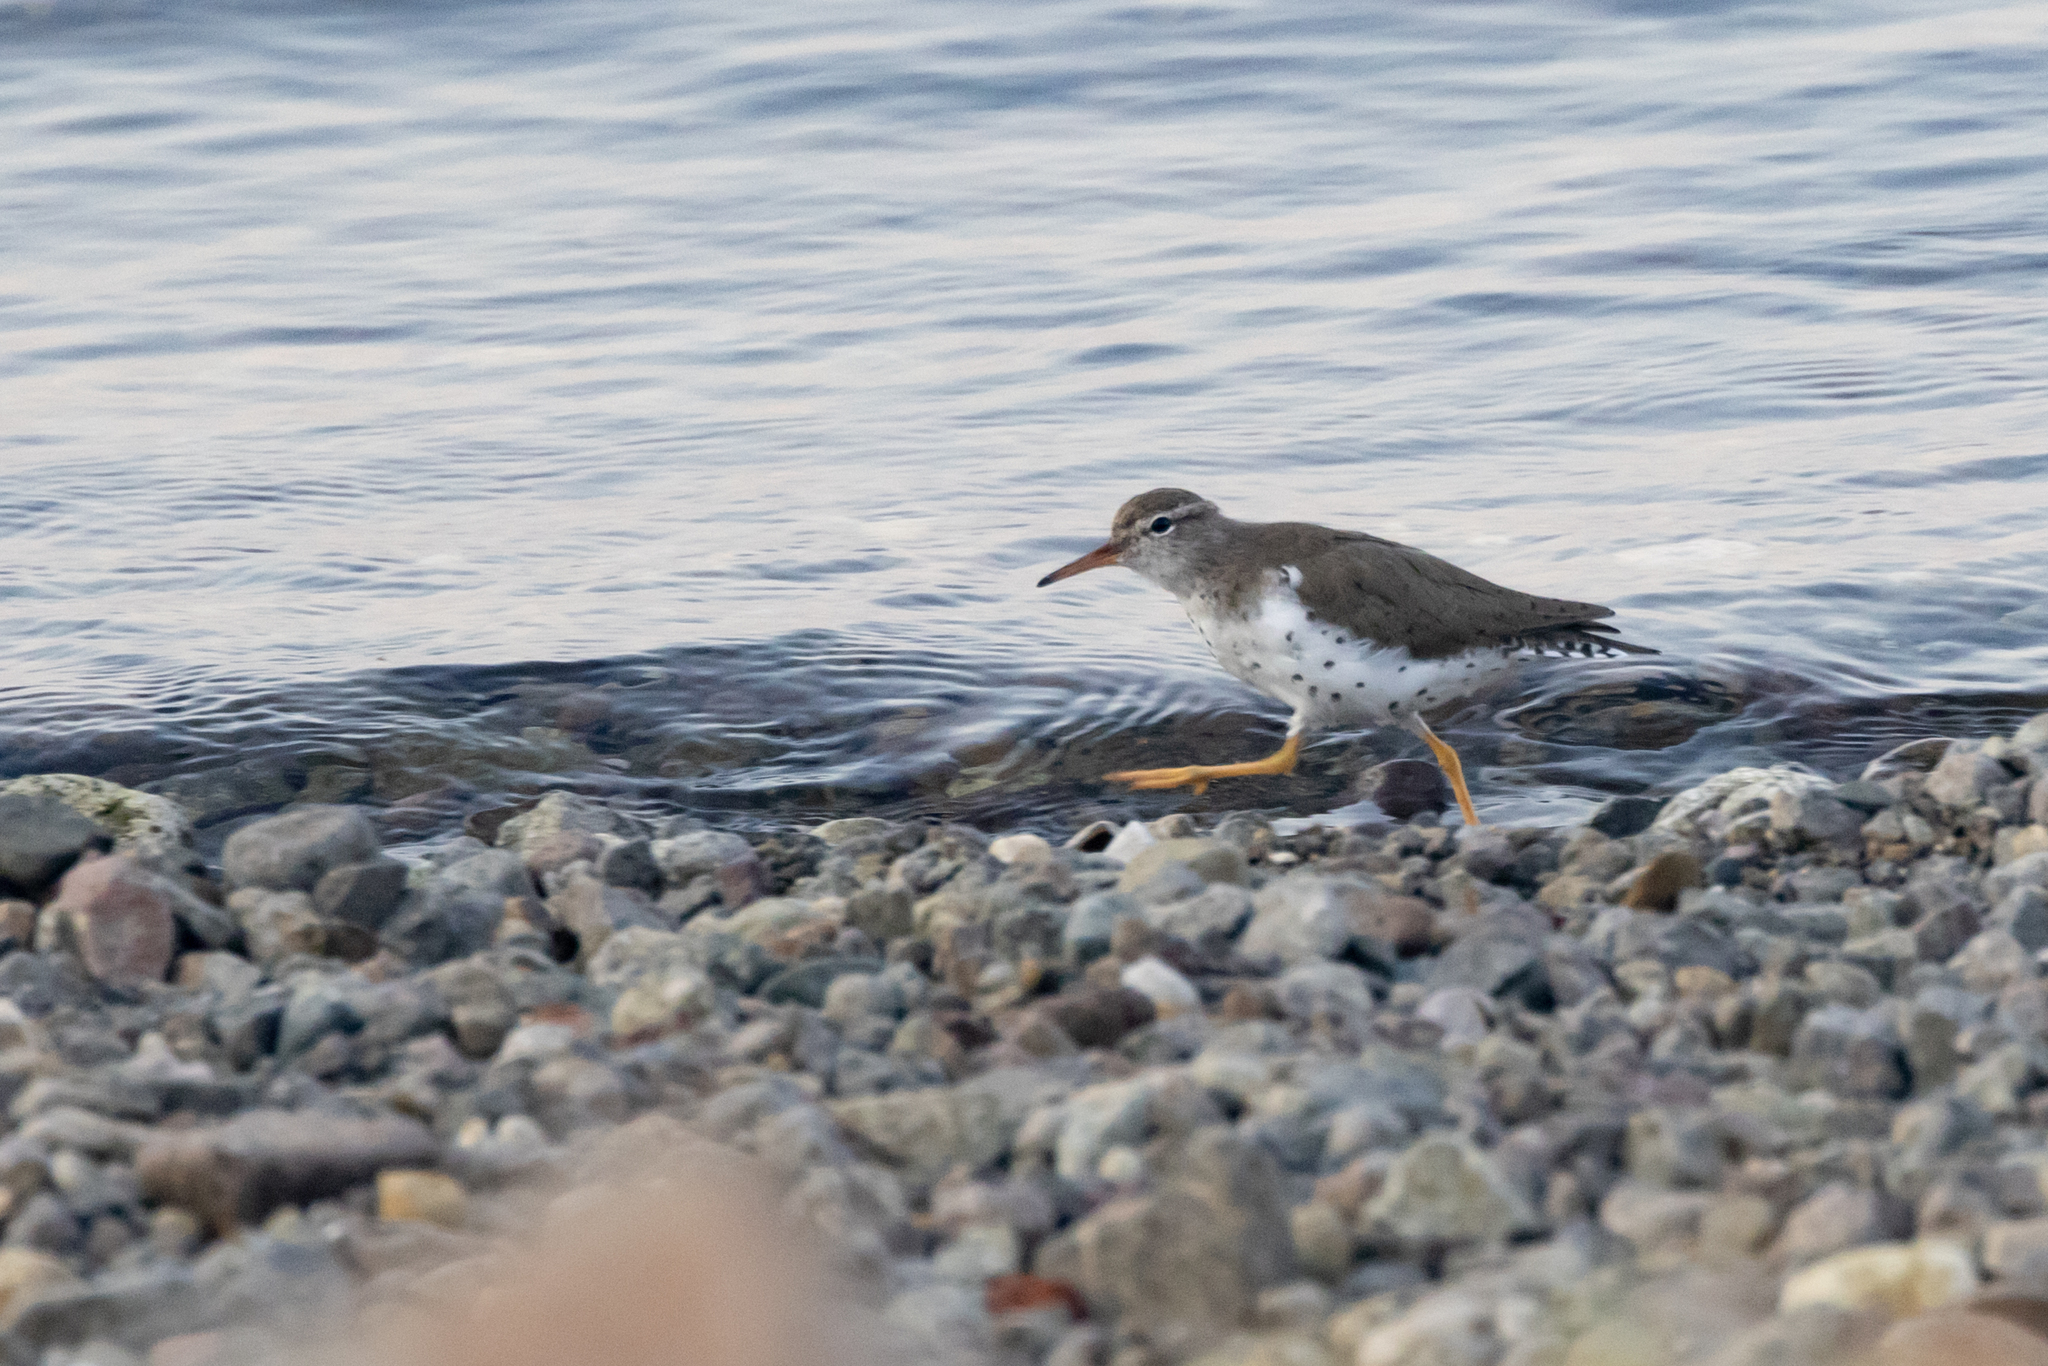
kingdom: Animalia
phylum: Chordata
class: Aves
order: Charadriiformes
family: Scolopacidae
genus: Actitis
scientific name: Actitis macularius
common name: Spotted sandpiper
